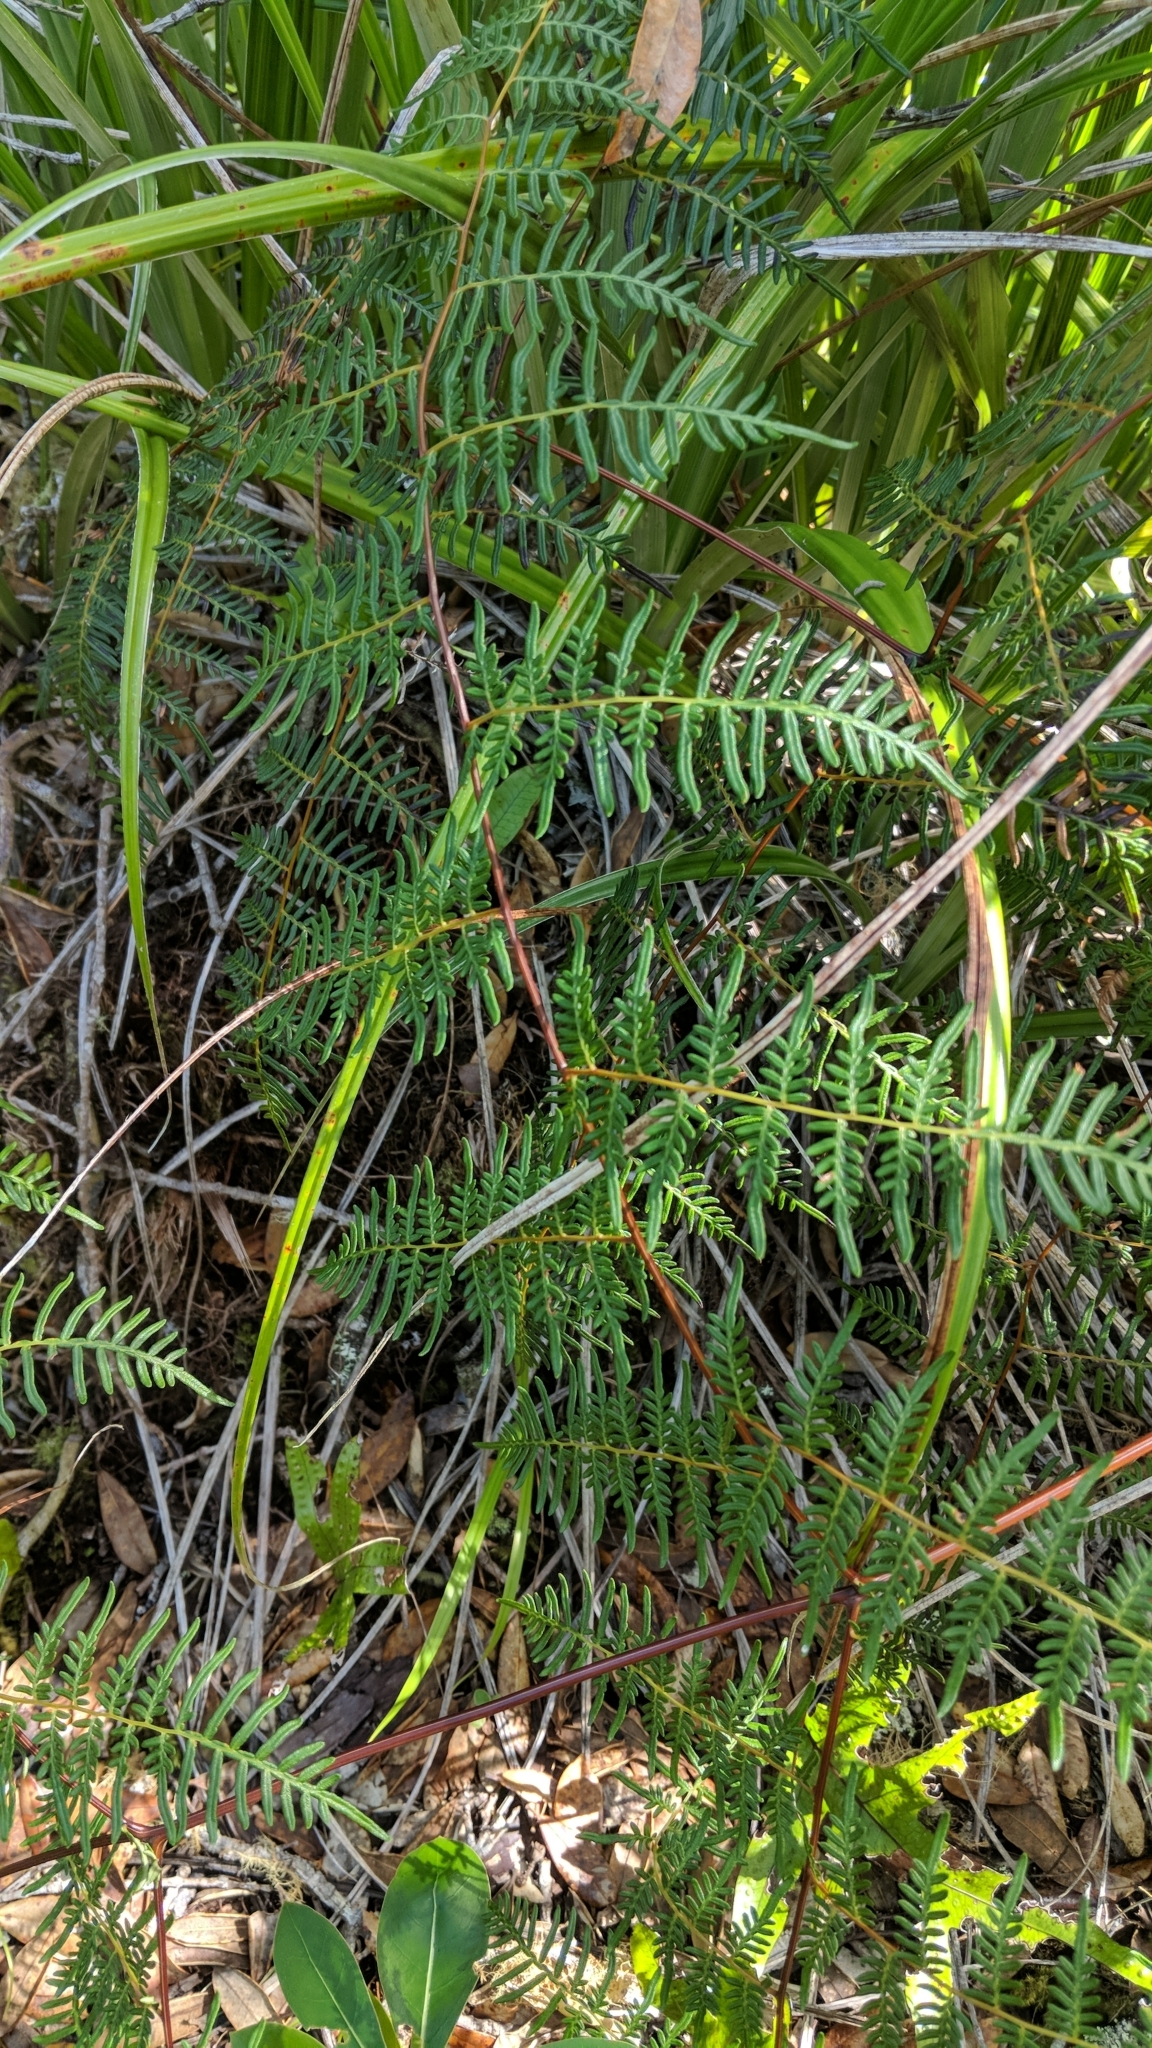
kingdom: Plantae
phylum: Tracheophyta
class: Polypodiopsida
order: Polypodiales
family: Dennstaedtiaceae
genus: Pteridium
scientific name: Pteridium esculentum
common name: Bracken fern
